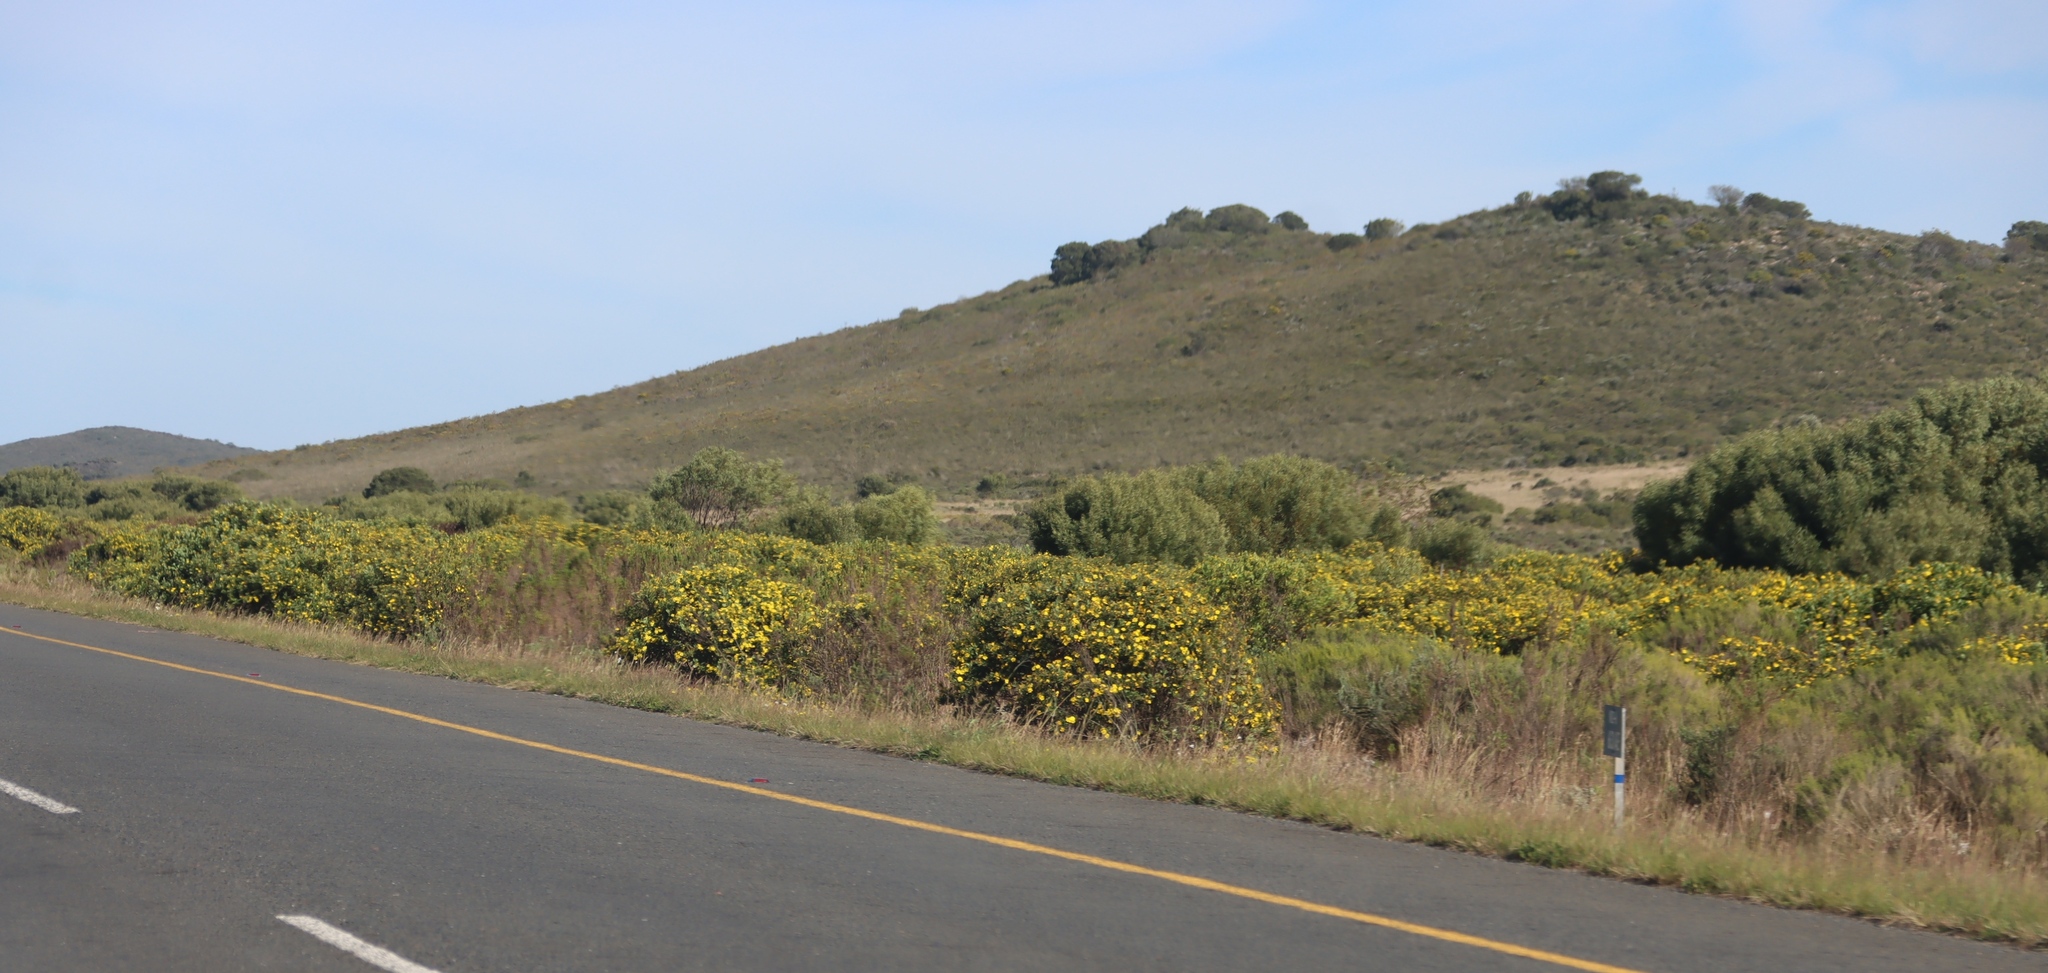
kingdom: Plantae
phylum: Tracheophyta
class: Magnoliopsida
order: Asterales
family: Asteraceae
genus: Osteospermum
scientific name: Osteospermum moniliferum
